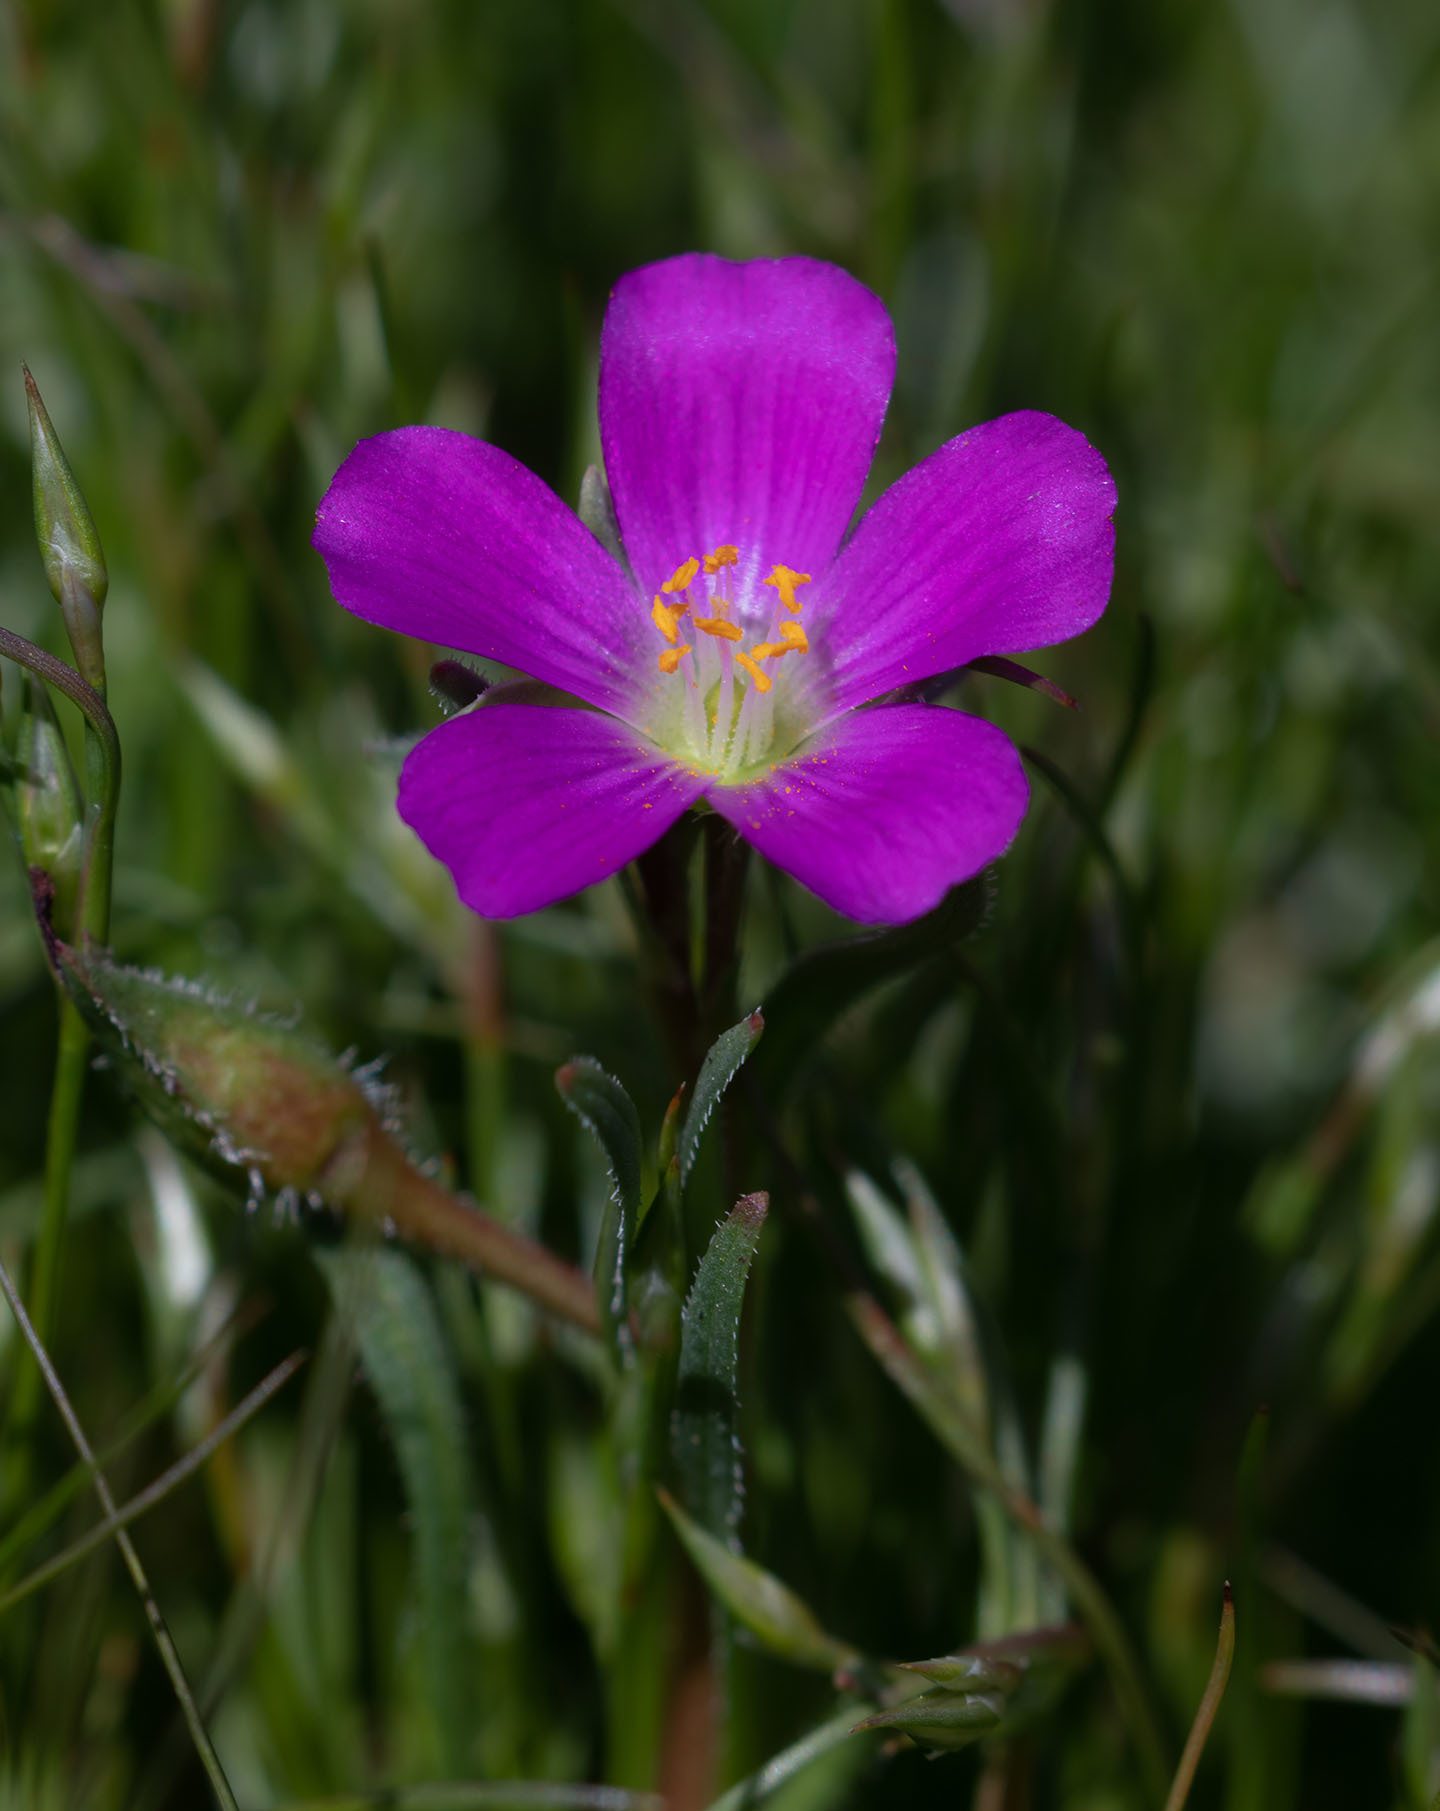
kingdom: Plantae
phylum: Tracheophyta
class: Magnoliopsida
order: Caryophyllales
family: Montiaceae
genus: Calandrinia
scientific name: Calandrinia menziesii
